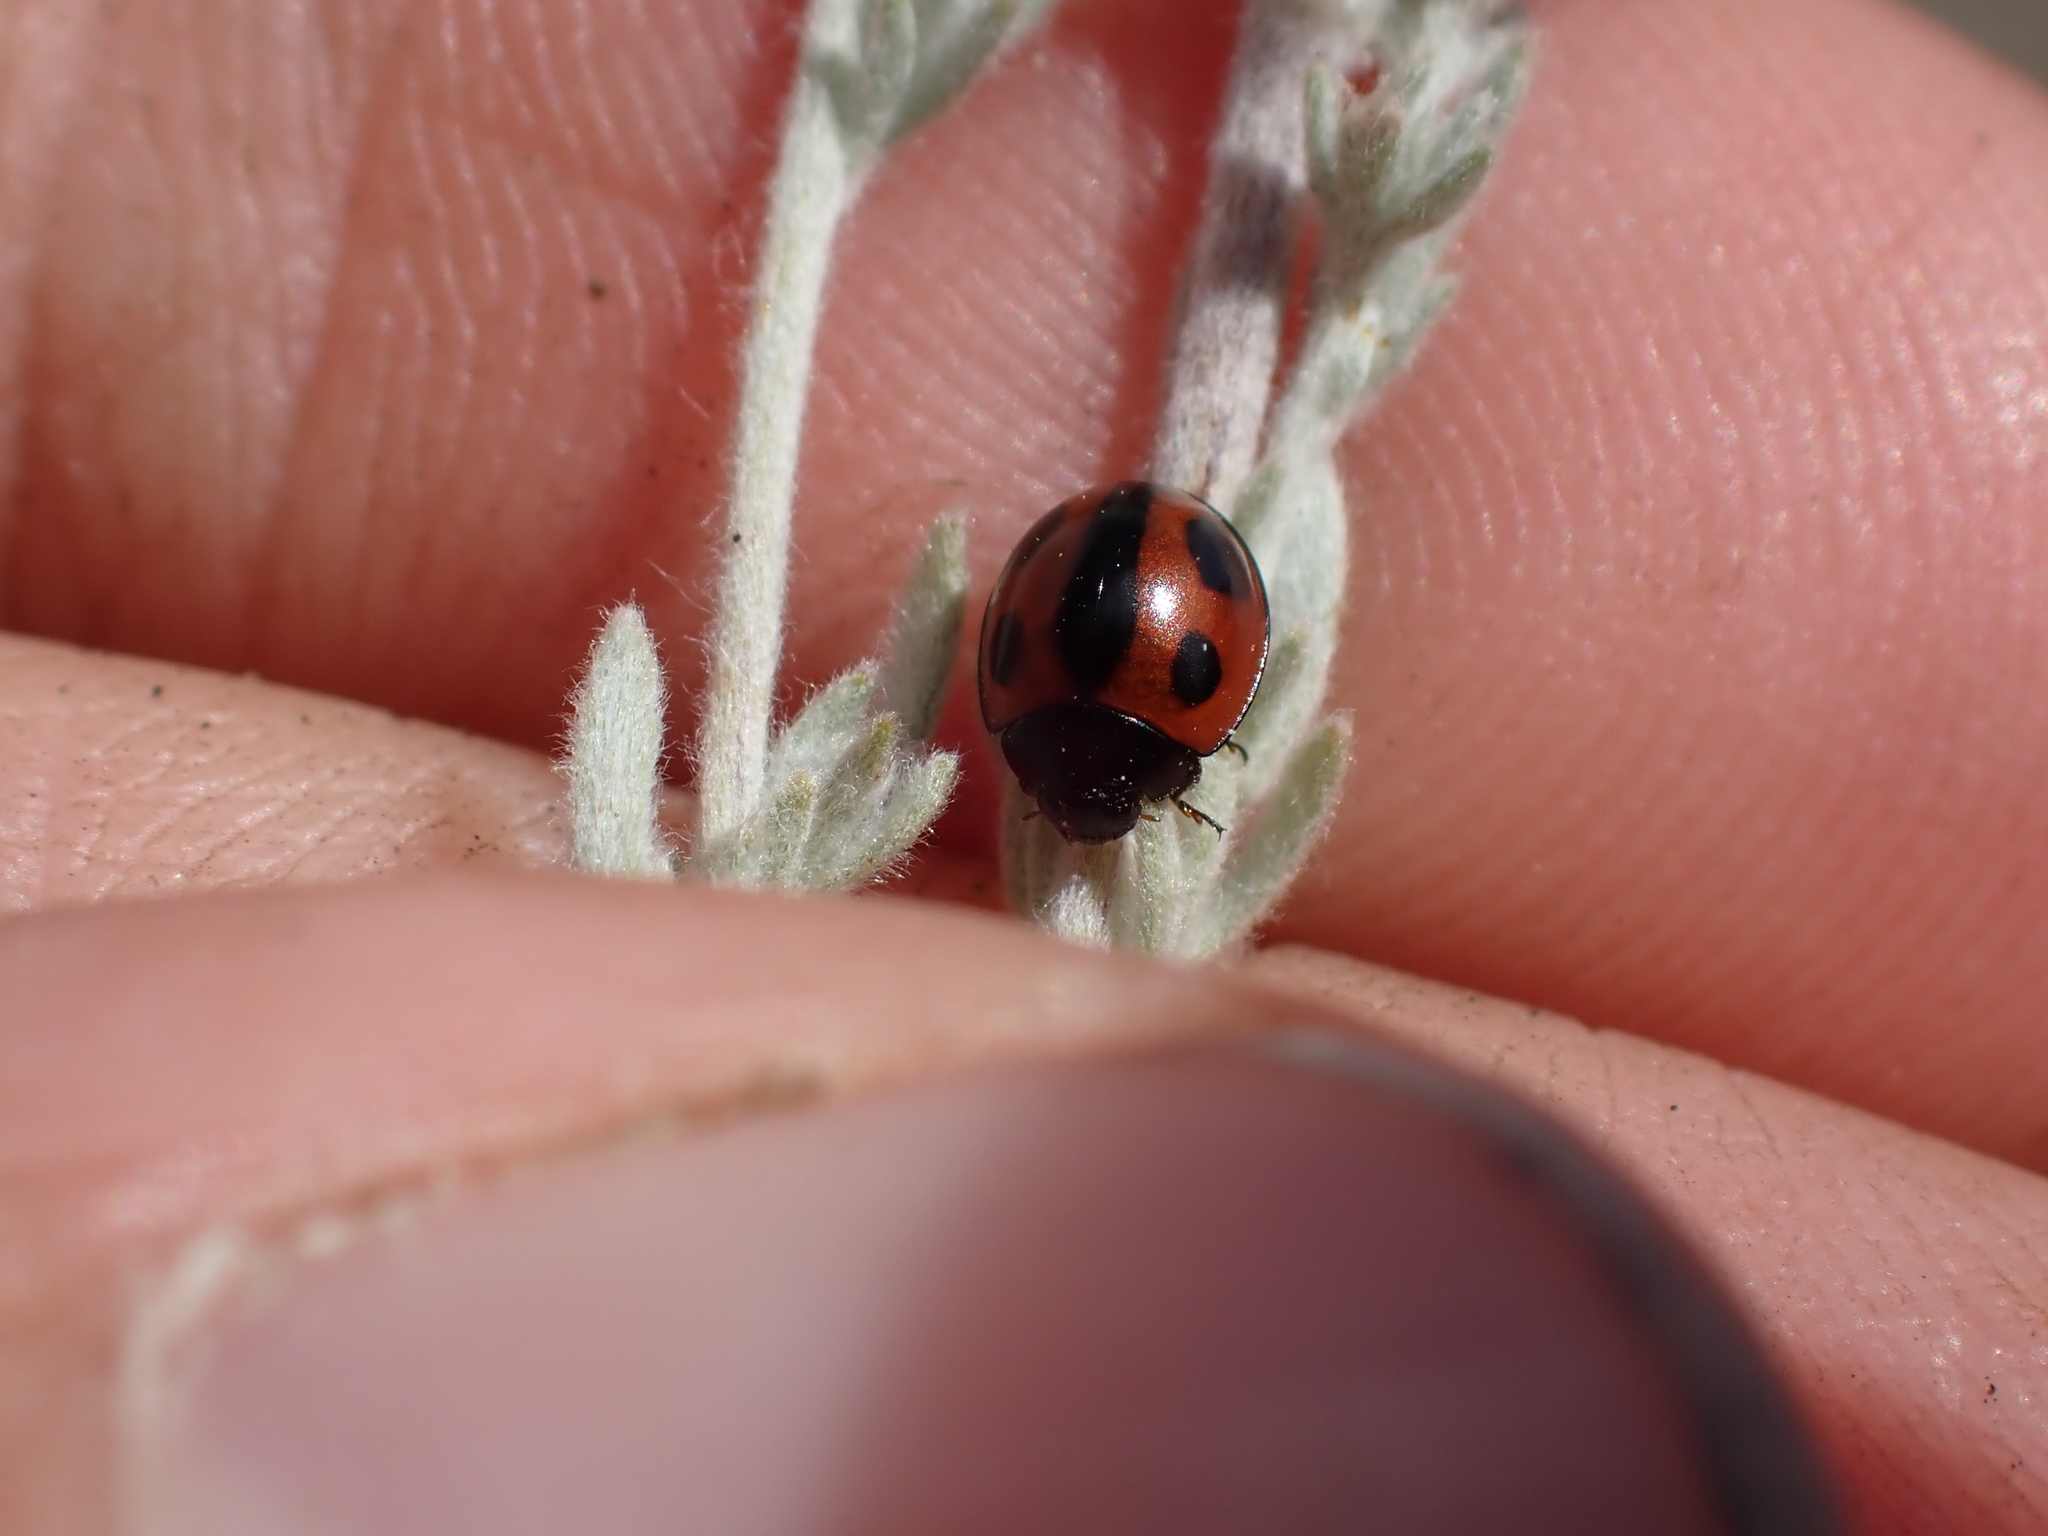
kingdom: Animalia
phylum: Arthropoda
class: Insecta
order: Coleoptera
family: Coccinellidae
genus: Brumoides
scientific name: Brumoides septentrionis
